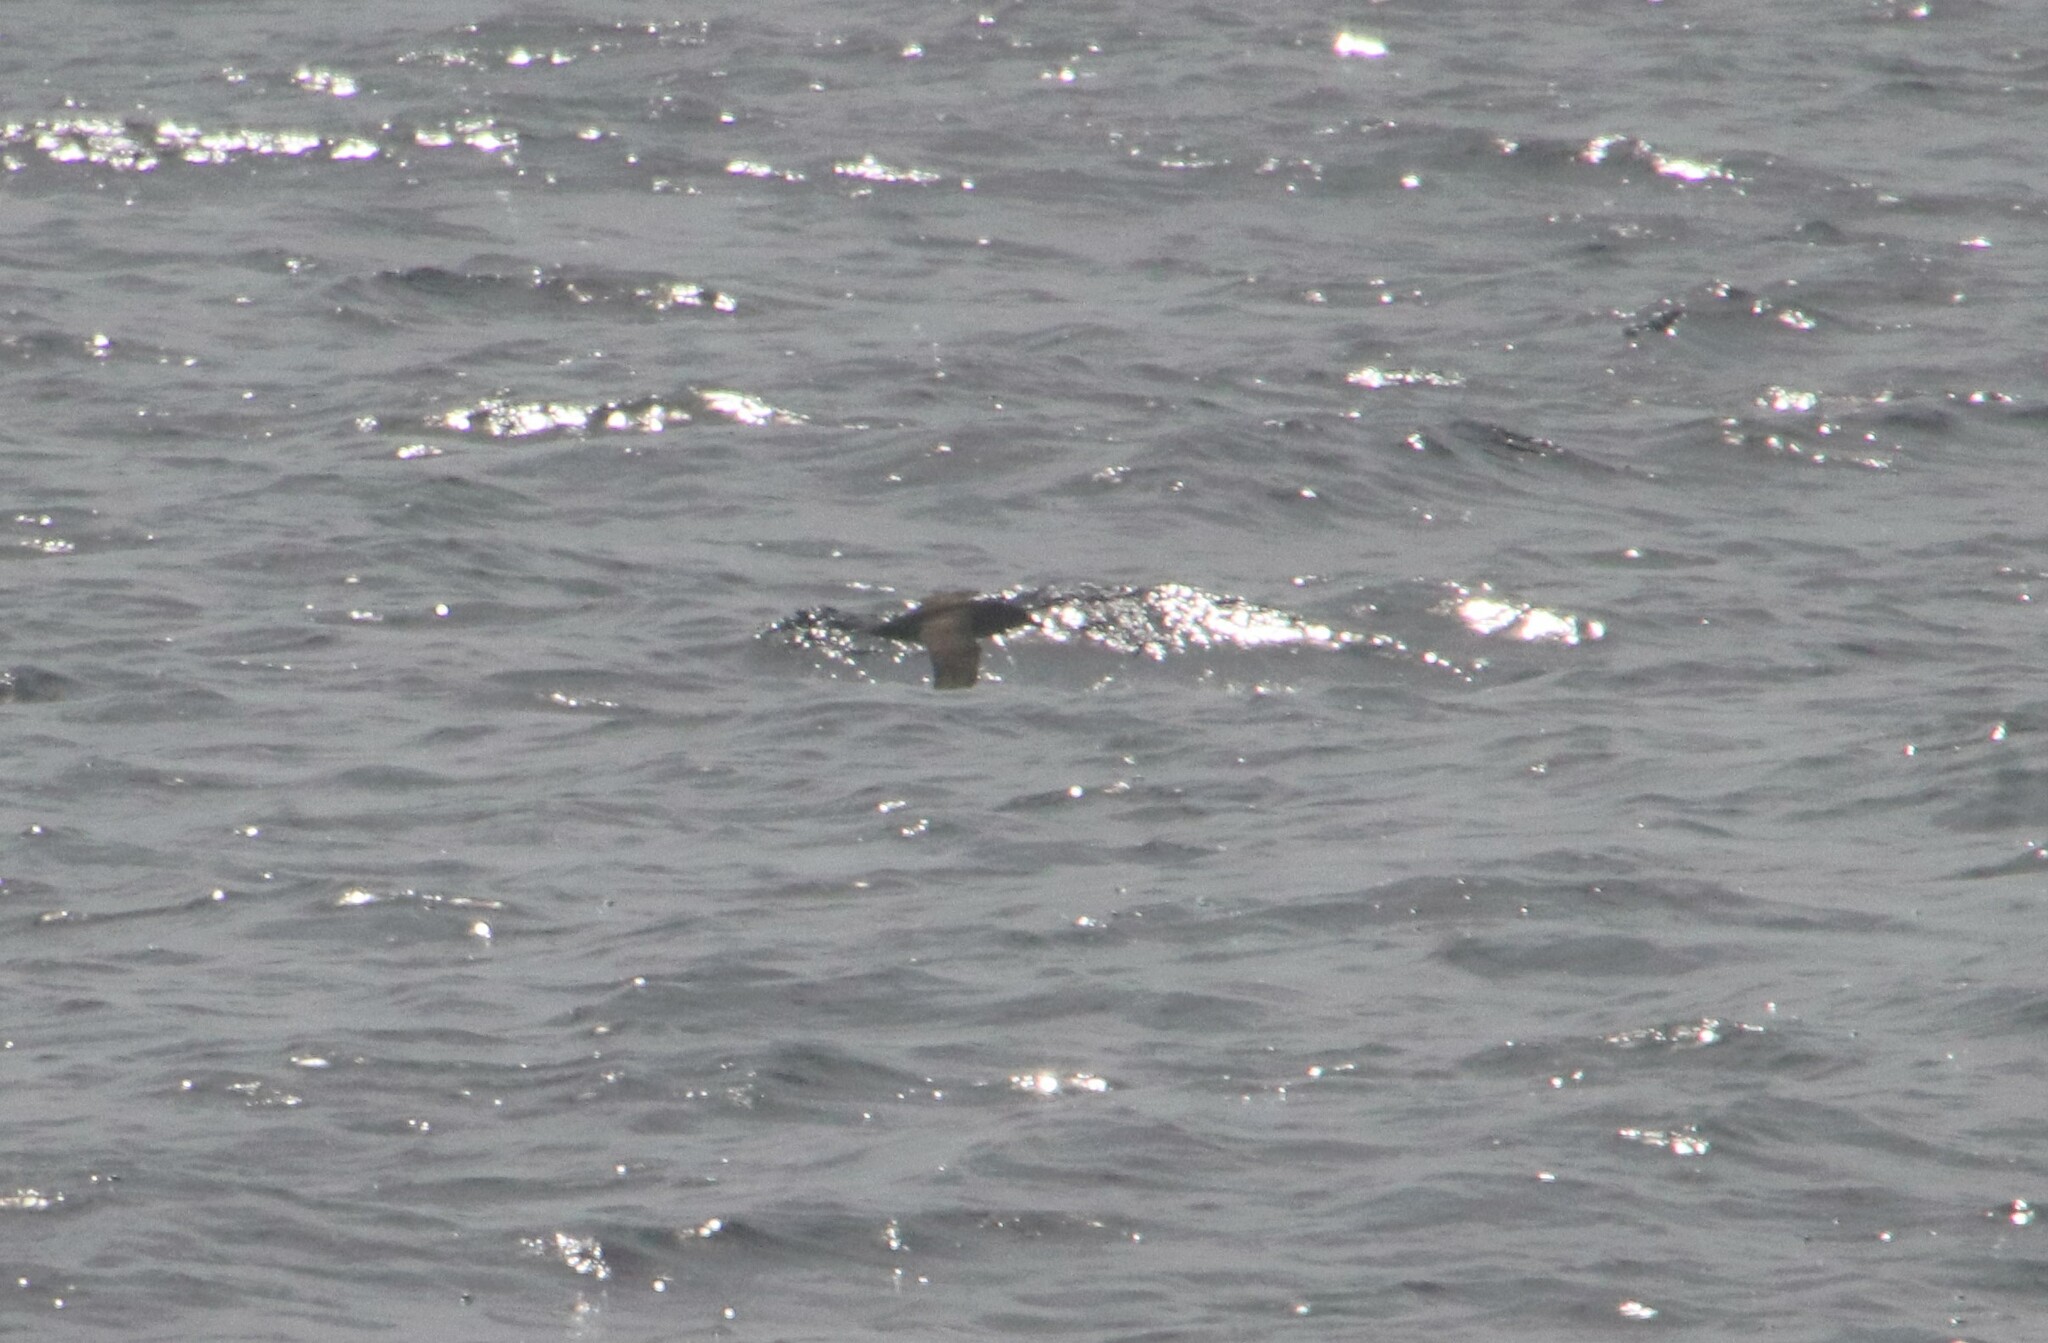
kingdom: Animalia
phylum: Chordata
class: Aves
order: Procellariiformes
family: Procellariidae
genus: Puffinus
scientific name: Puffinus griseus
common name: Sooty shearwater
